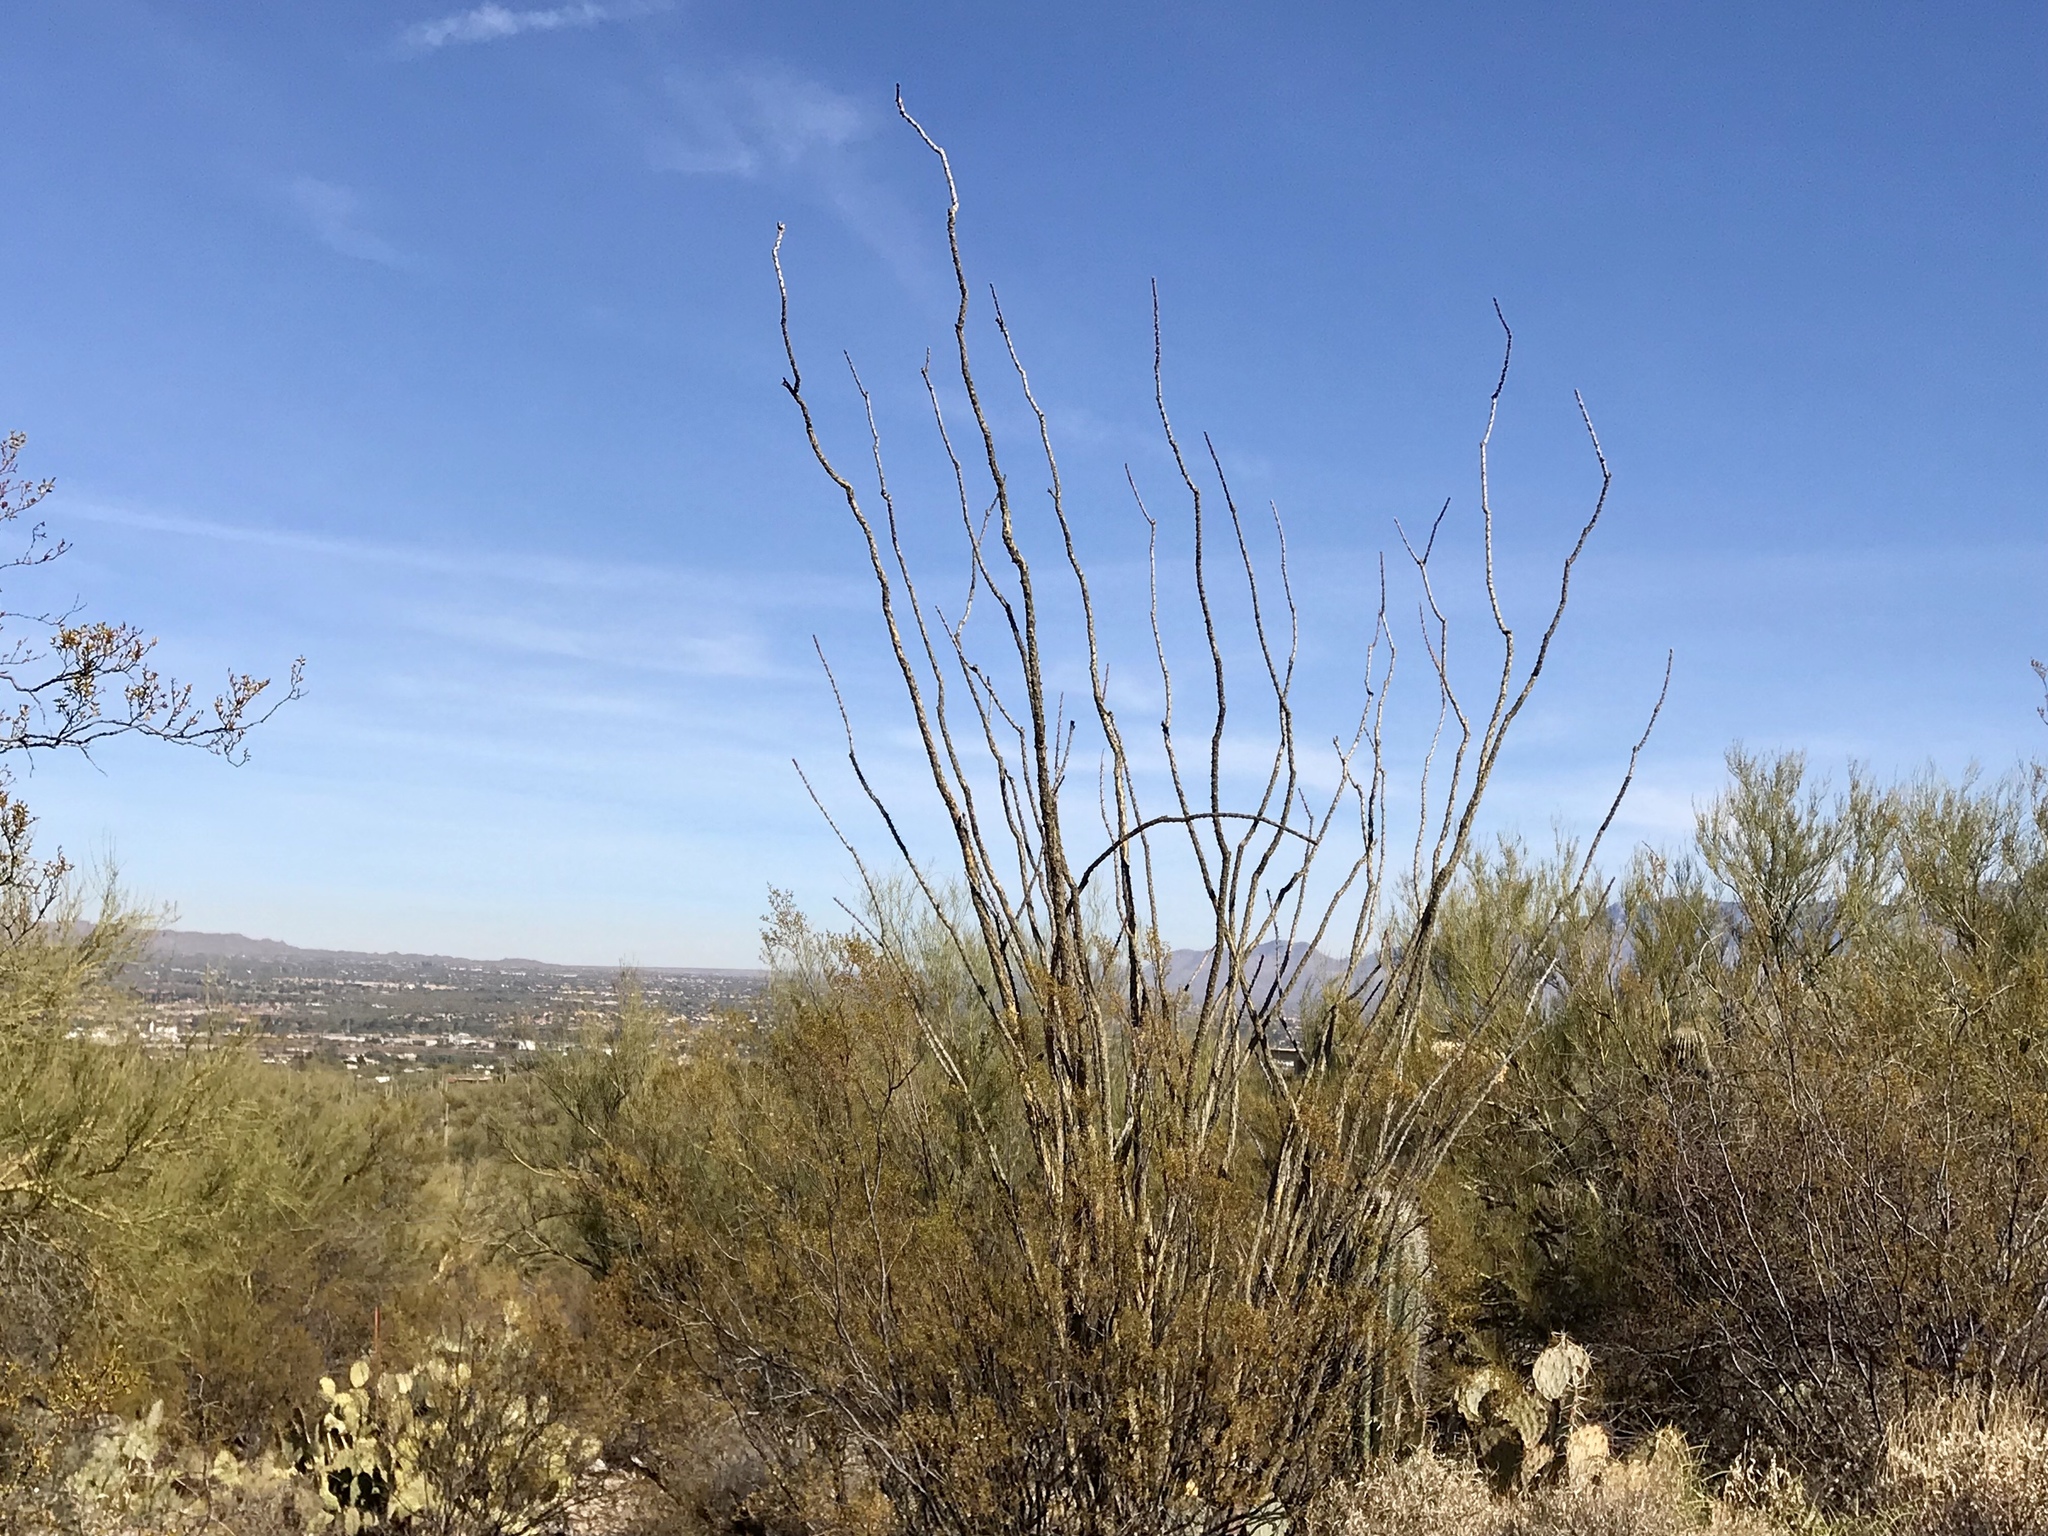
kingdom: Plantae
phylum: Tracheophyta
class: Magnoliopsida
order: Ericales
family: Fouquieriaceae
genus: Fouquieria
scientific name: Fouquieria splendens
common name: Vine-cactus
